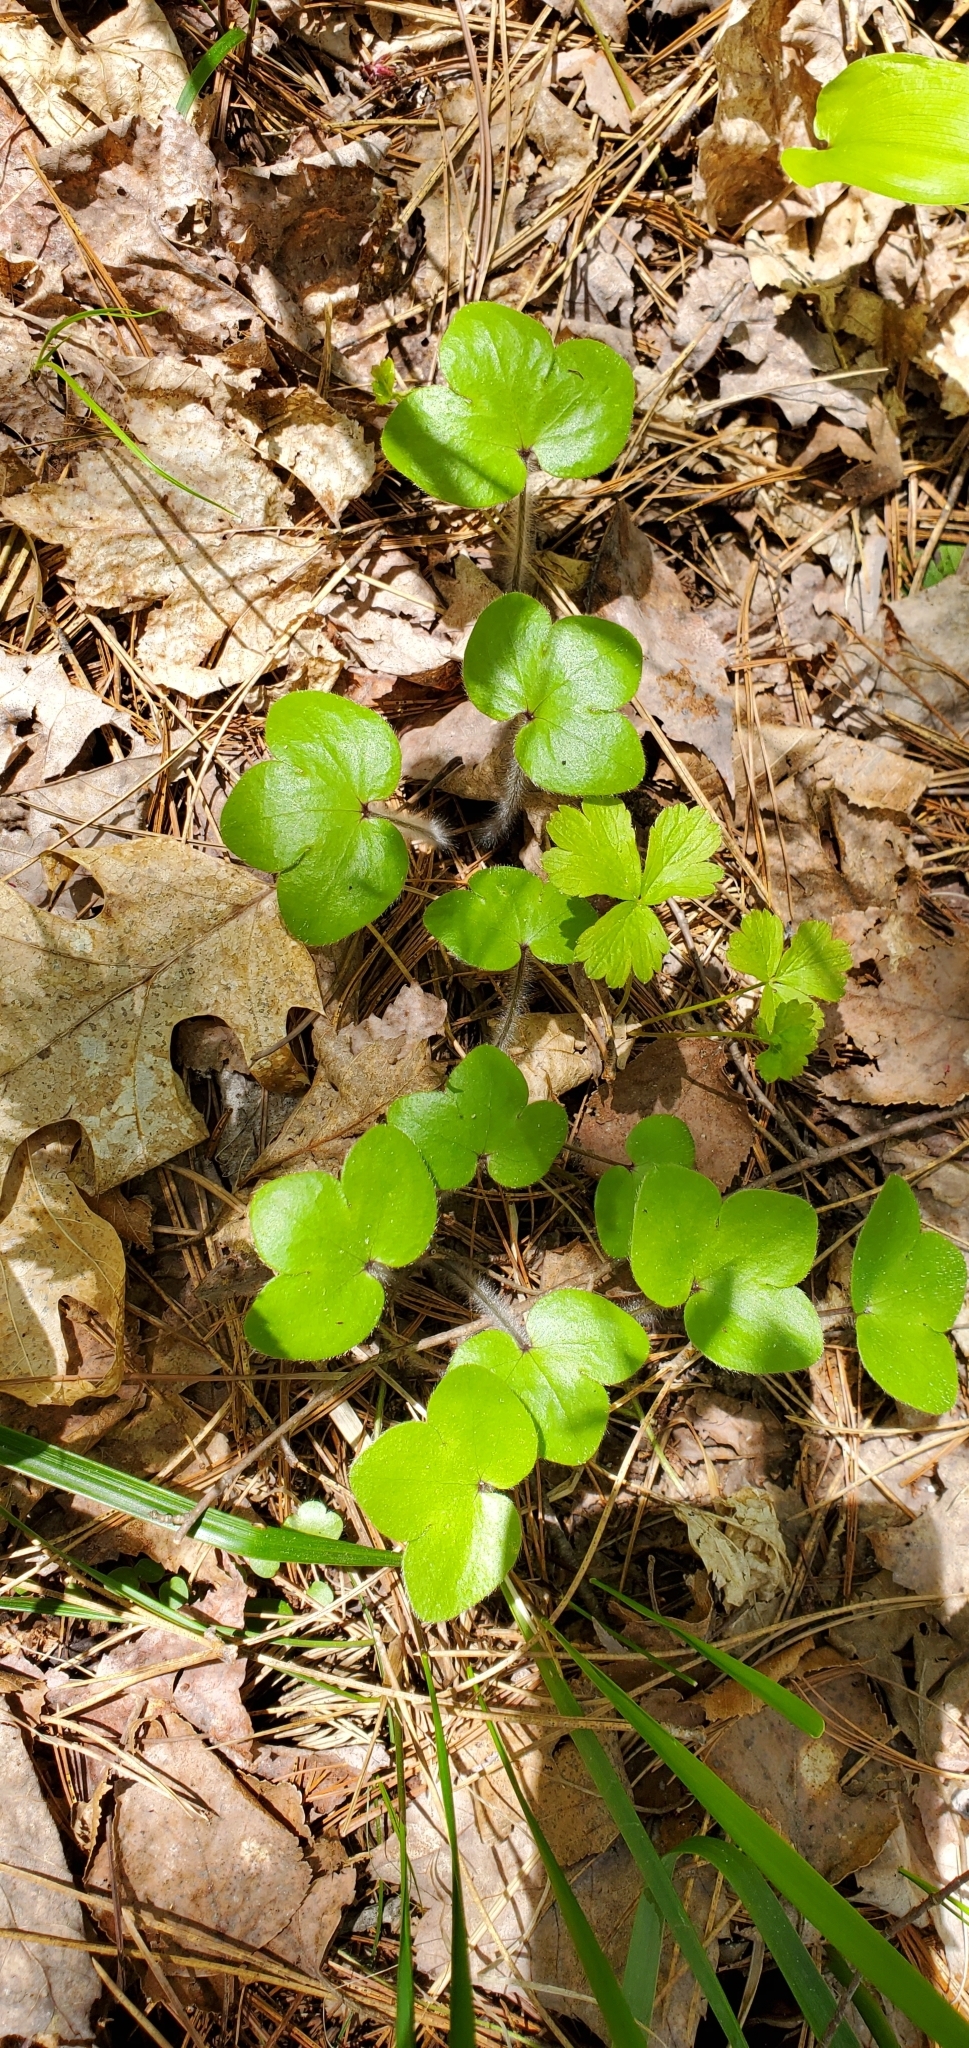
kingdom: Plantae
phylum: Tracheophyta
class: Magnoliopsida
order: Ranunculales
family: Ranunculaceae
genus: Hepatica
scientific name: Hepatica americana
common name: American hepatica
